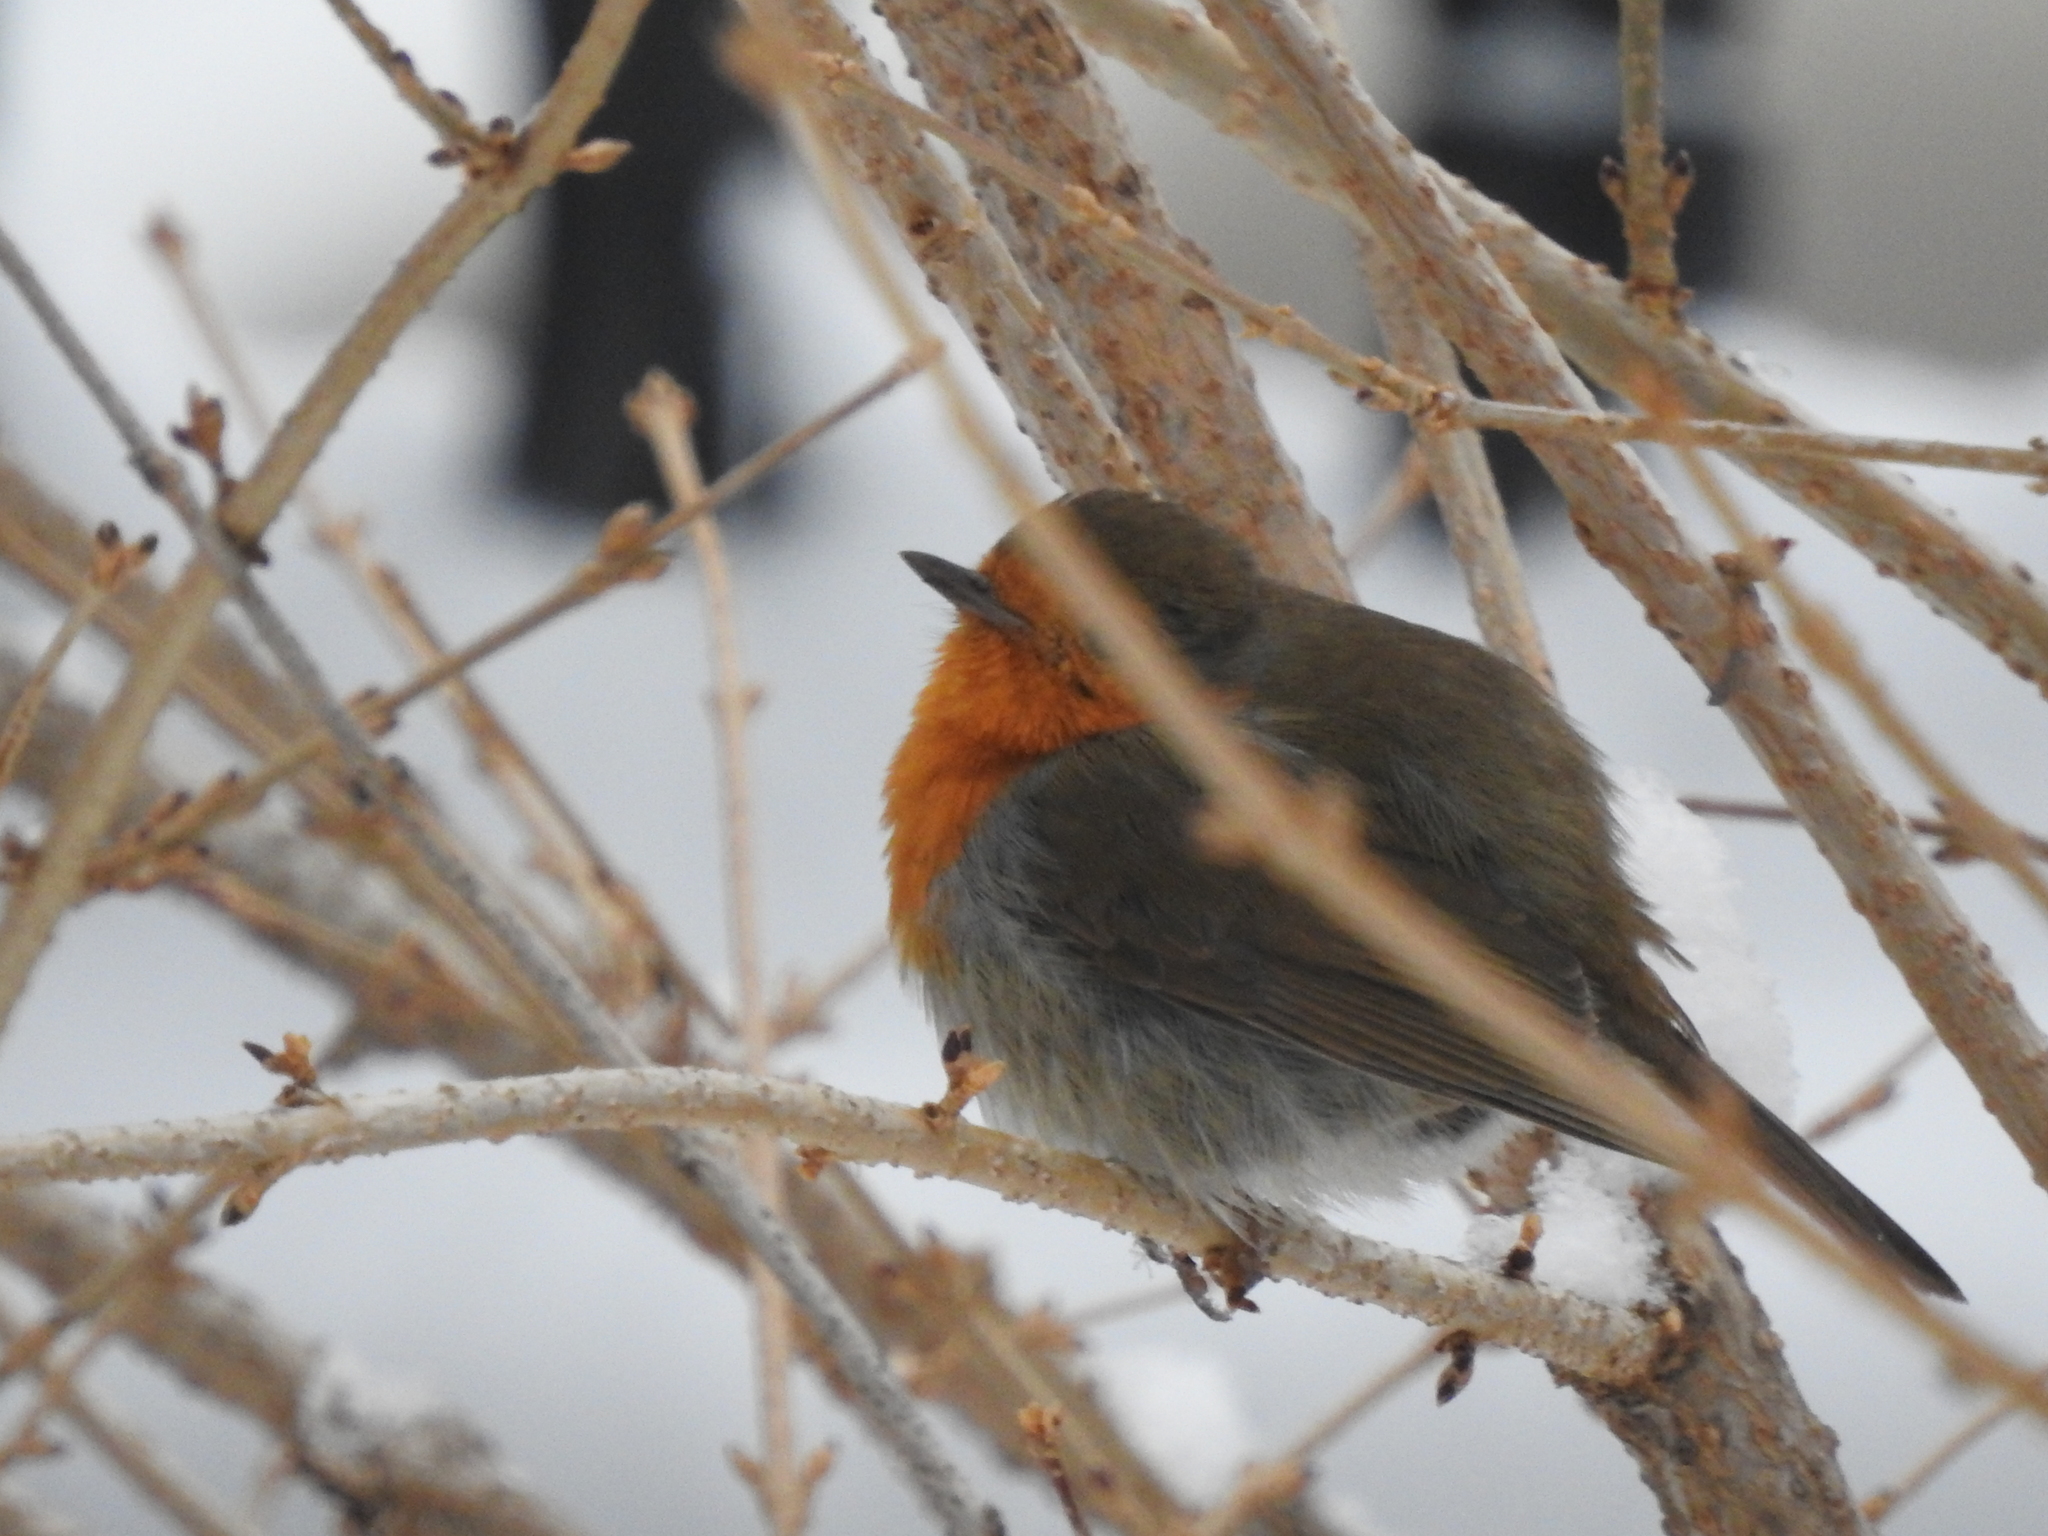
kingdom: Animalia
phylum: Chordata
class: Aves
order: Passeriformes
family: Muscicapidae
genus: Erithacus
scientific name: Erithacus rubecula
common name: European robin
